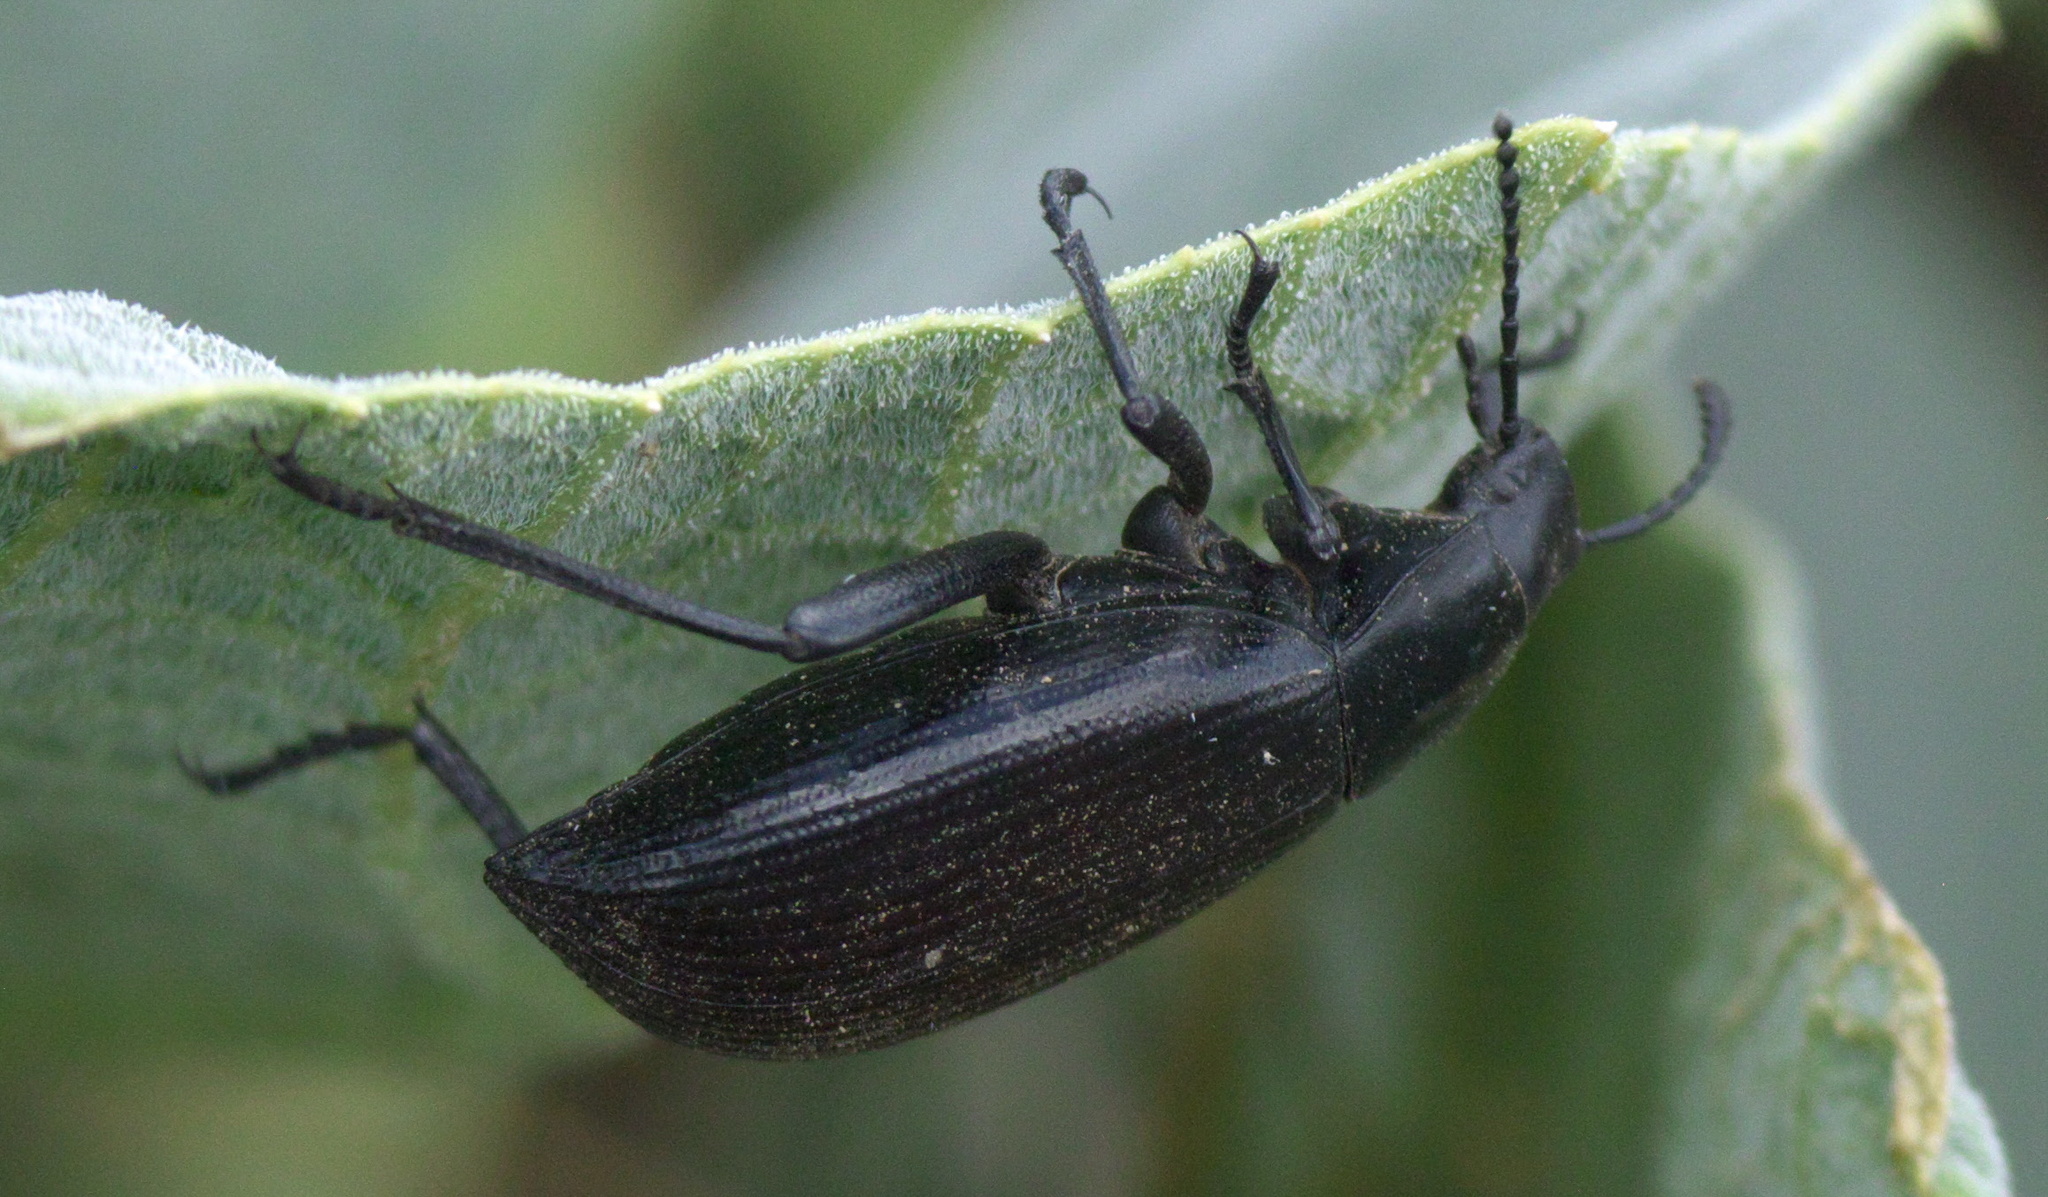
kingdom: Animalia
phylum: Arthropoda
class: Insecta
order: Coleoptera
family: Tenebrionidae
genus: Eleodes
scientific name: Eleodes hispilabris
